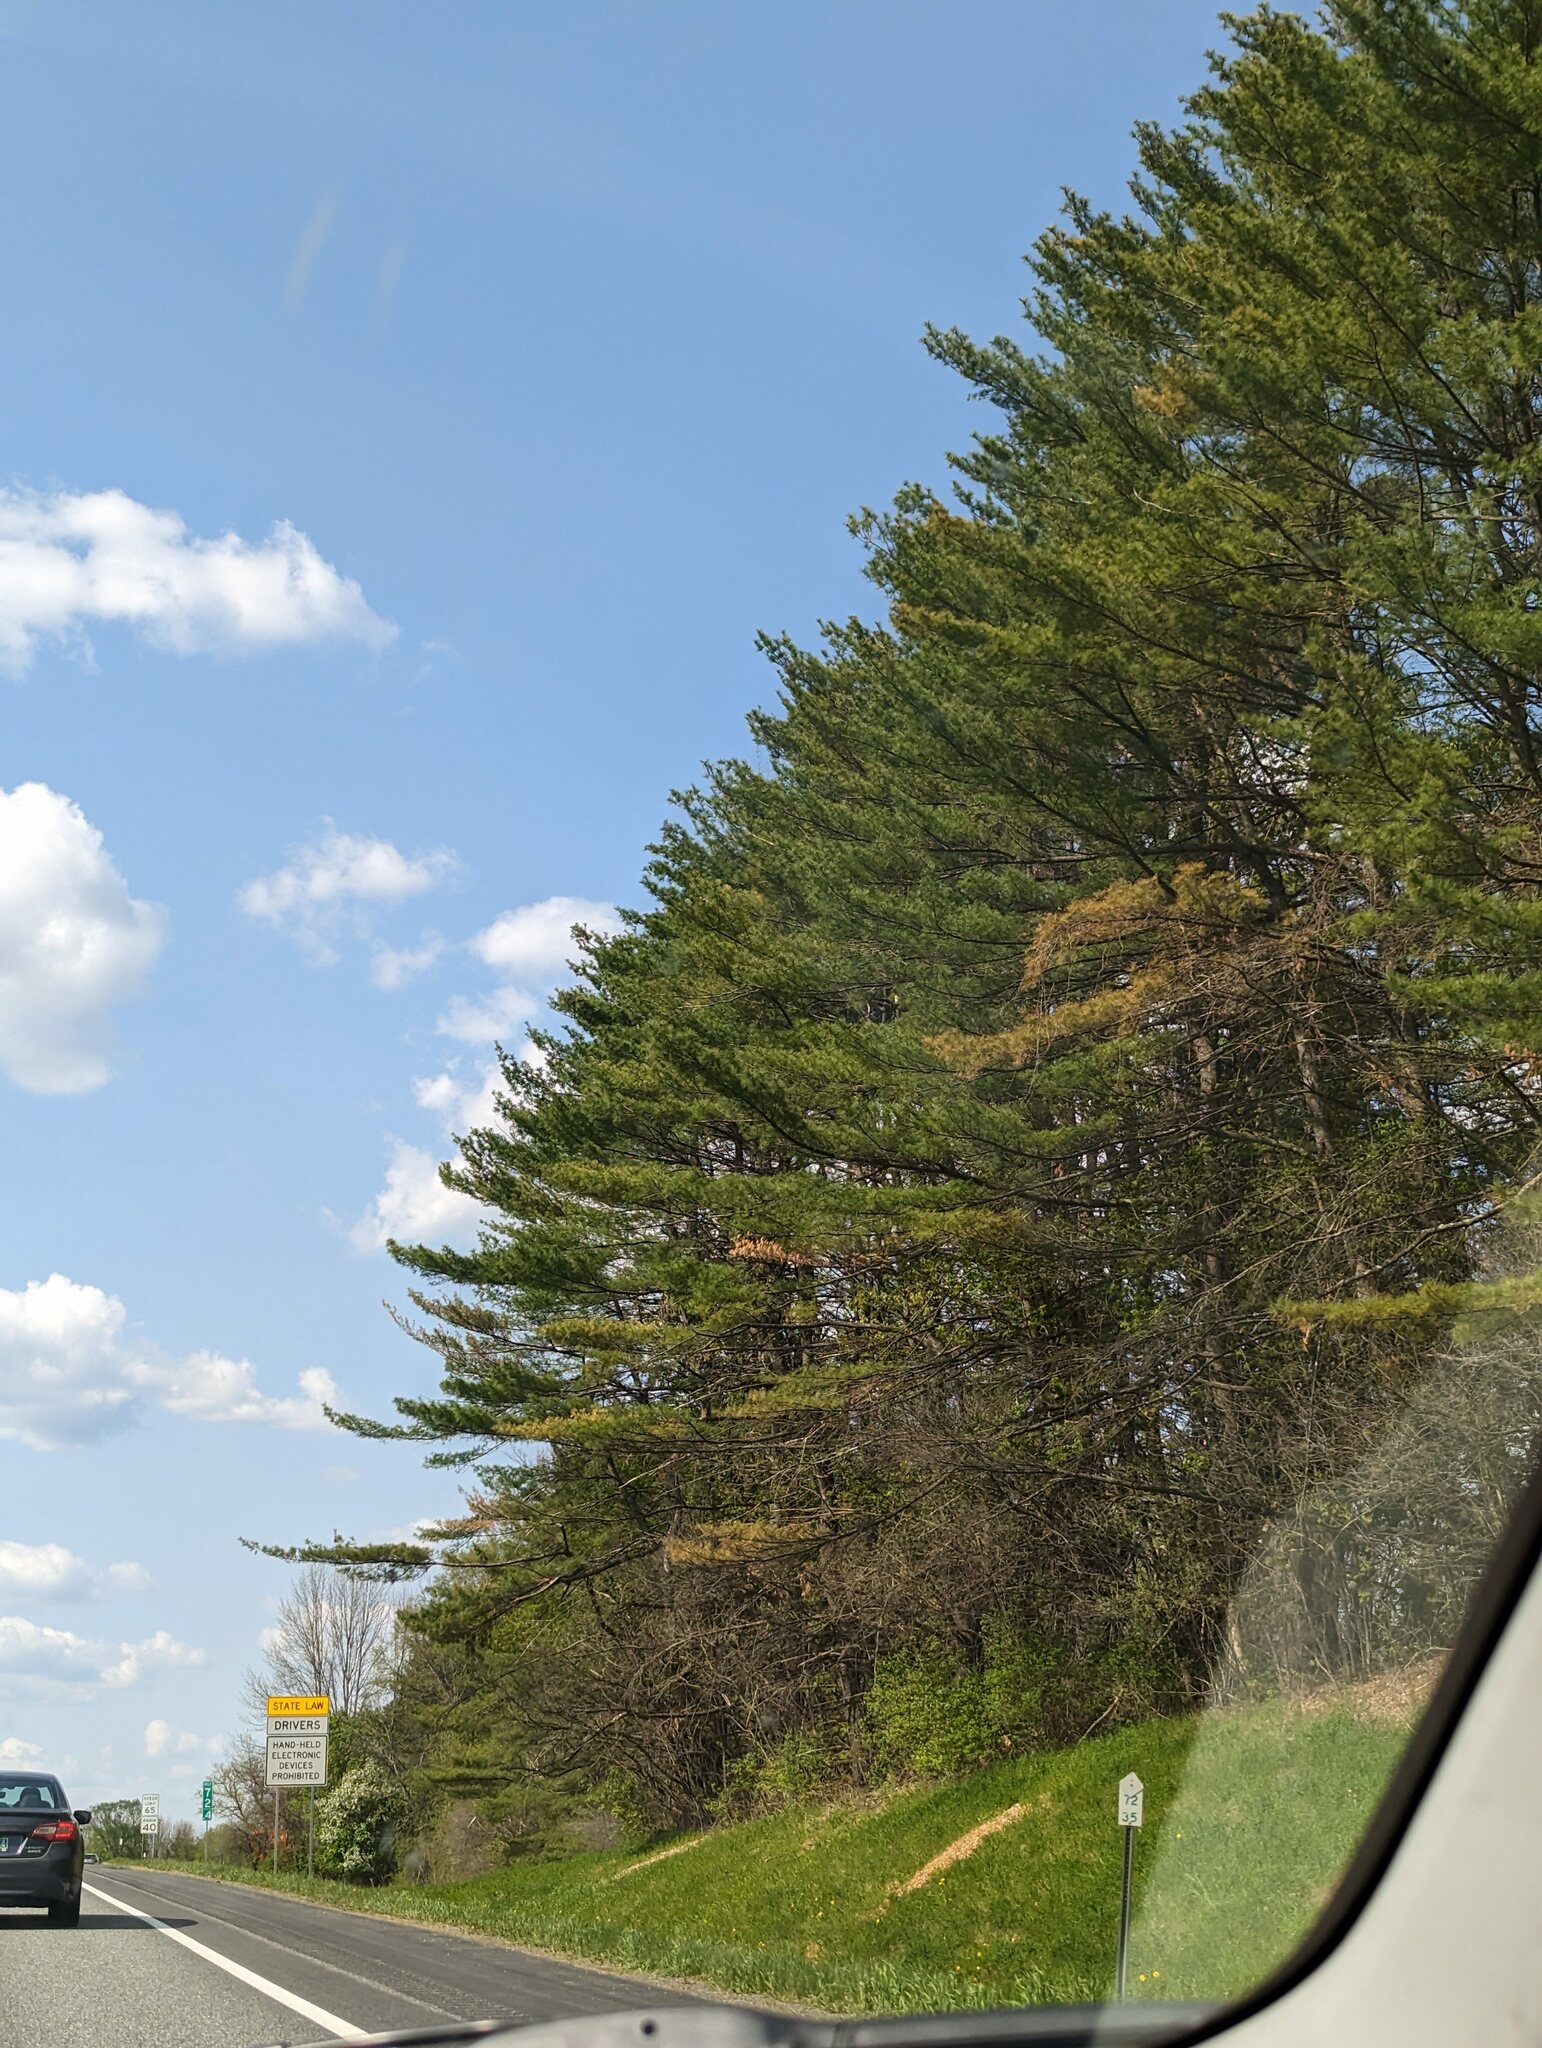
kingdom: Plantae
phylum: Tracheophyta
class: Pinopsida
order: Pinales
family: Pinaceae
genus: Pinus
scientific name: Pinus strobus
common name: Weymouth pine
